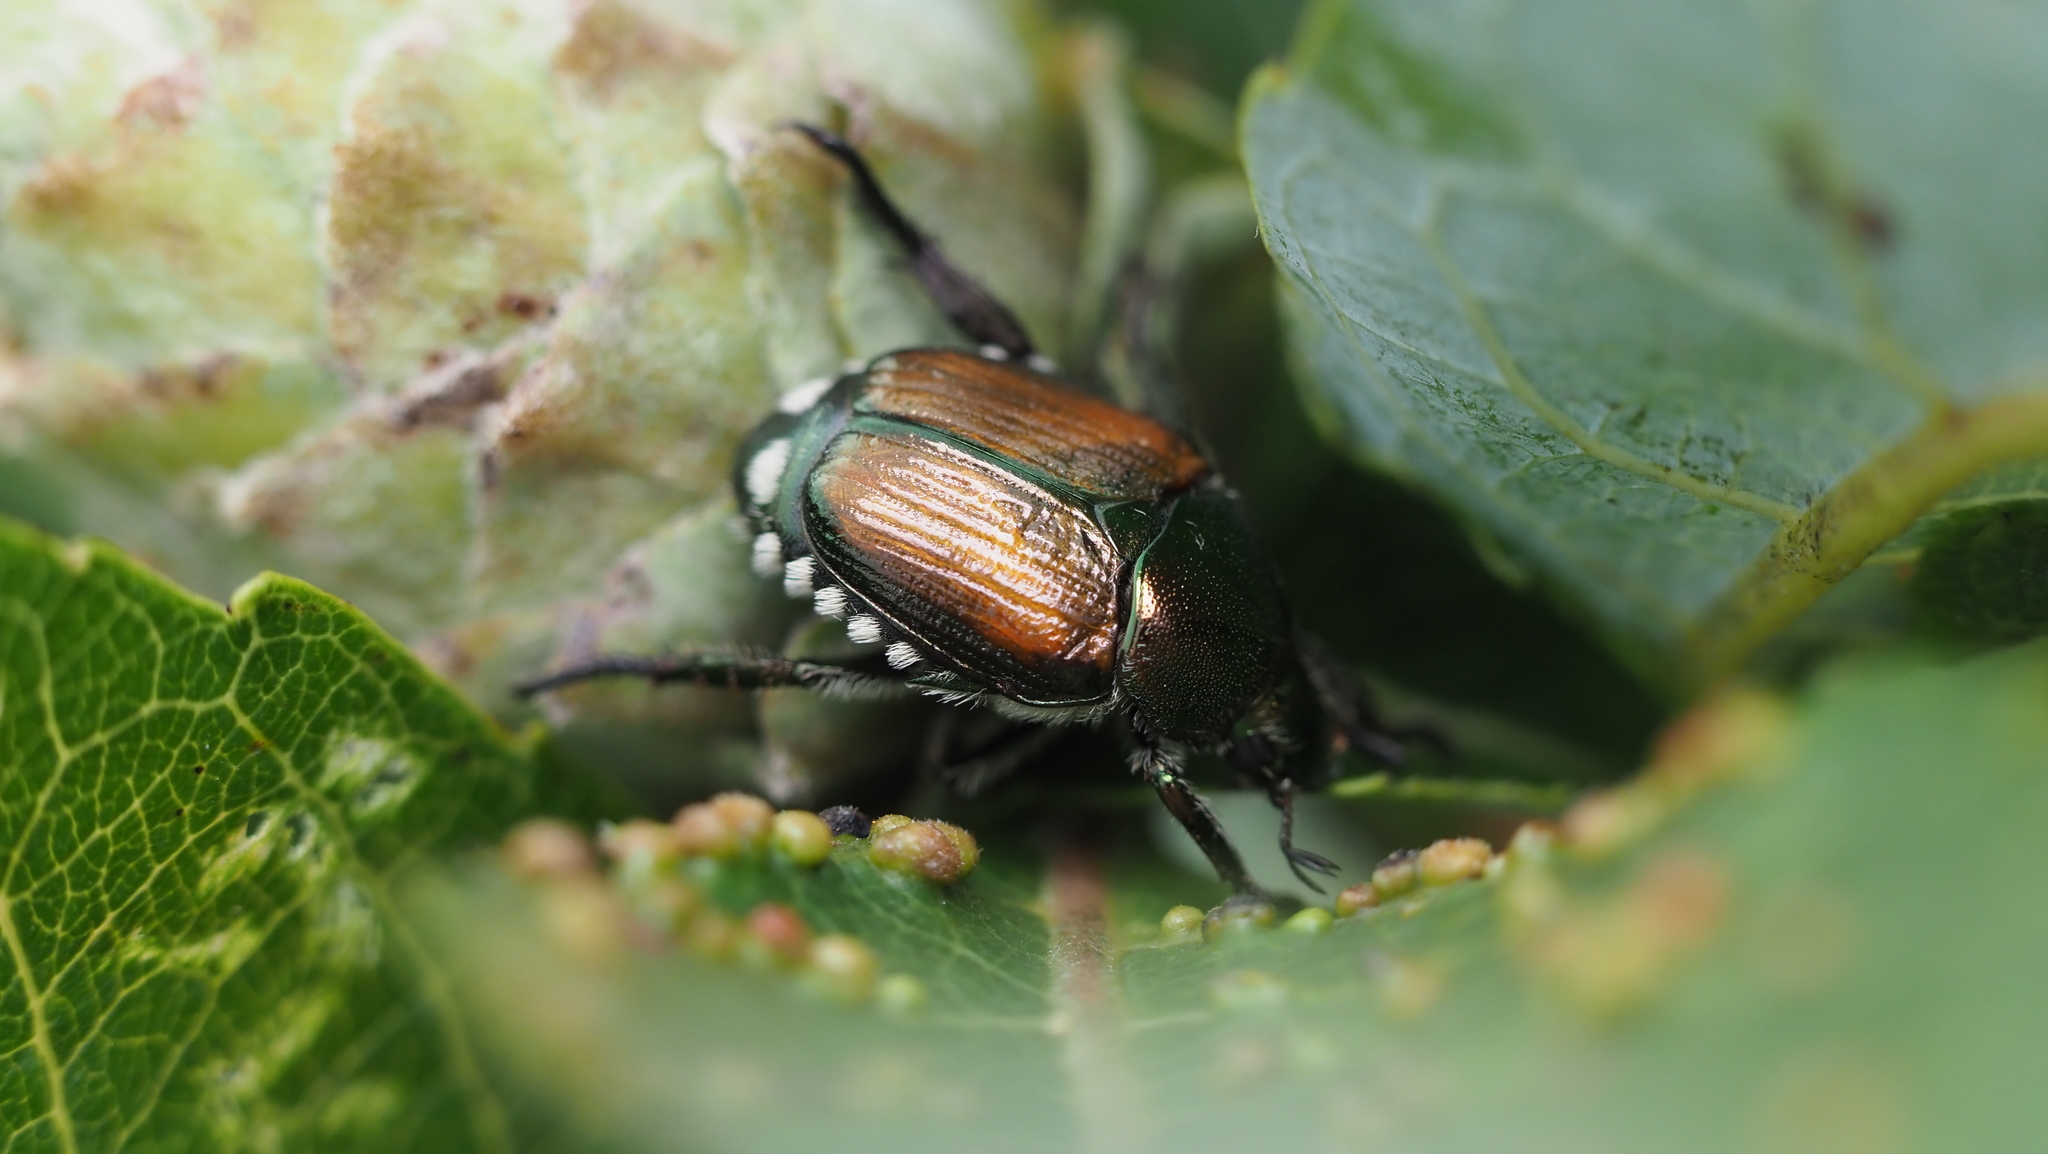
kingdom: Animalia
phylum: Arthropoda
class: Insecta
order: Coleoptera
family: Scarabaeidae
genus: Popillia
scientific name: Popillia japonica
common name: Japanese beetle
